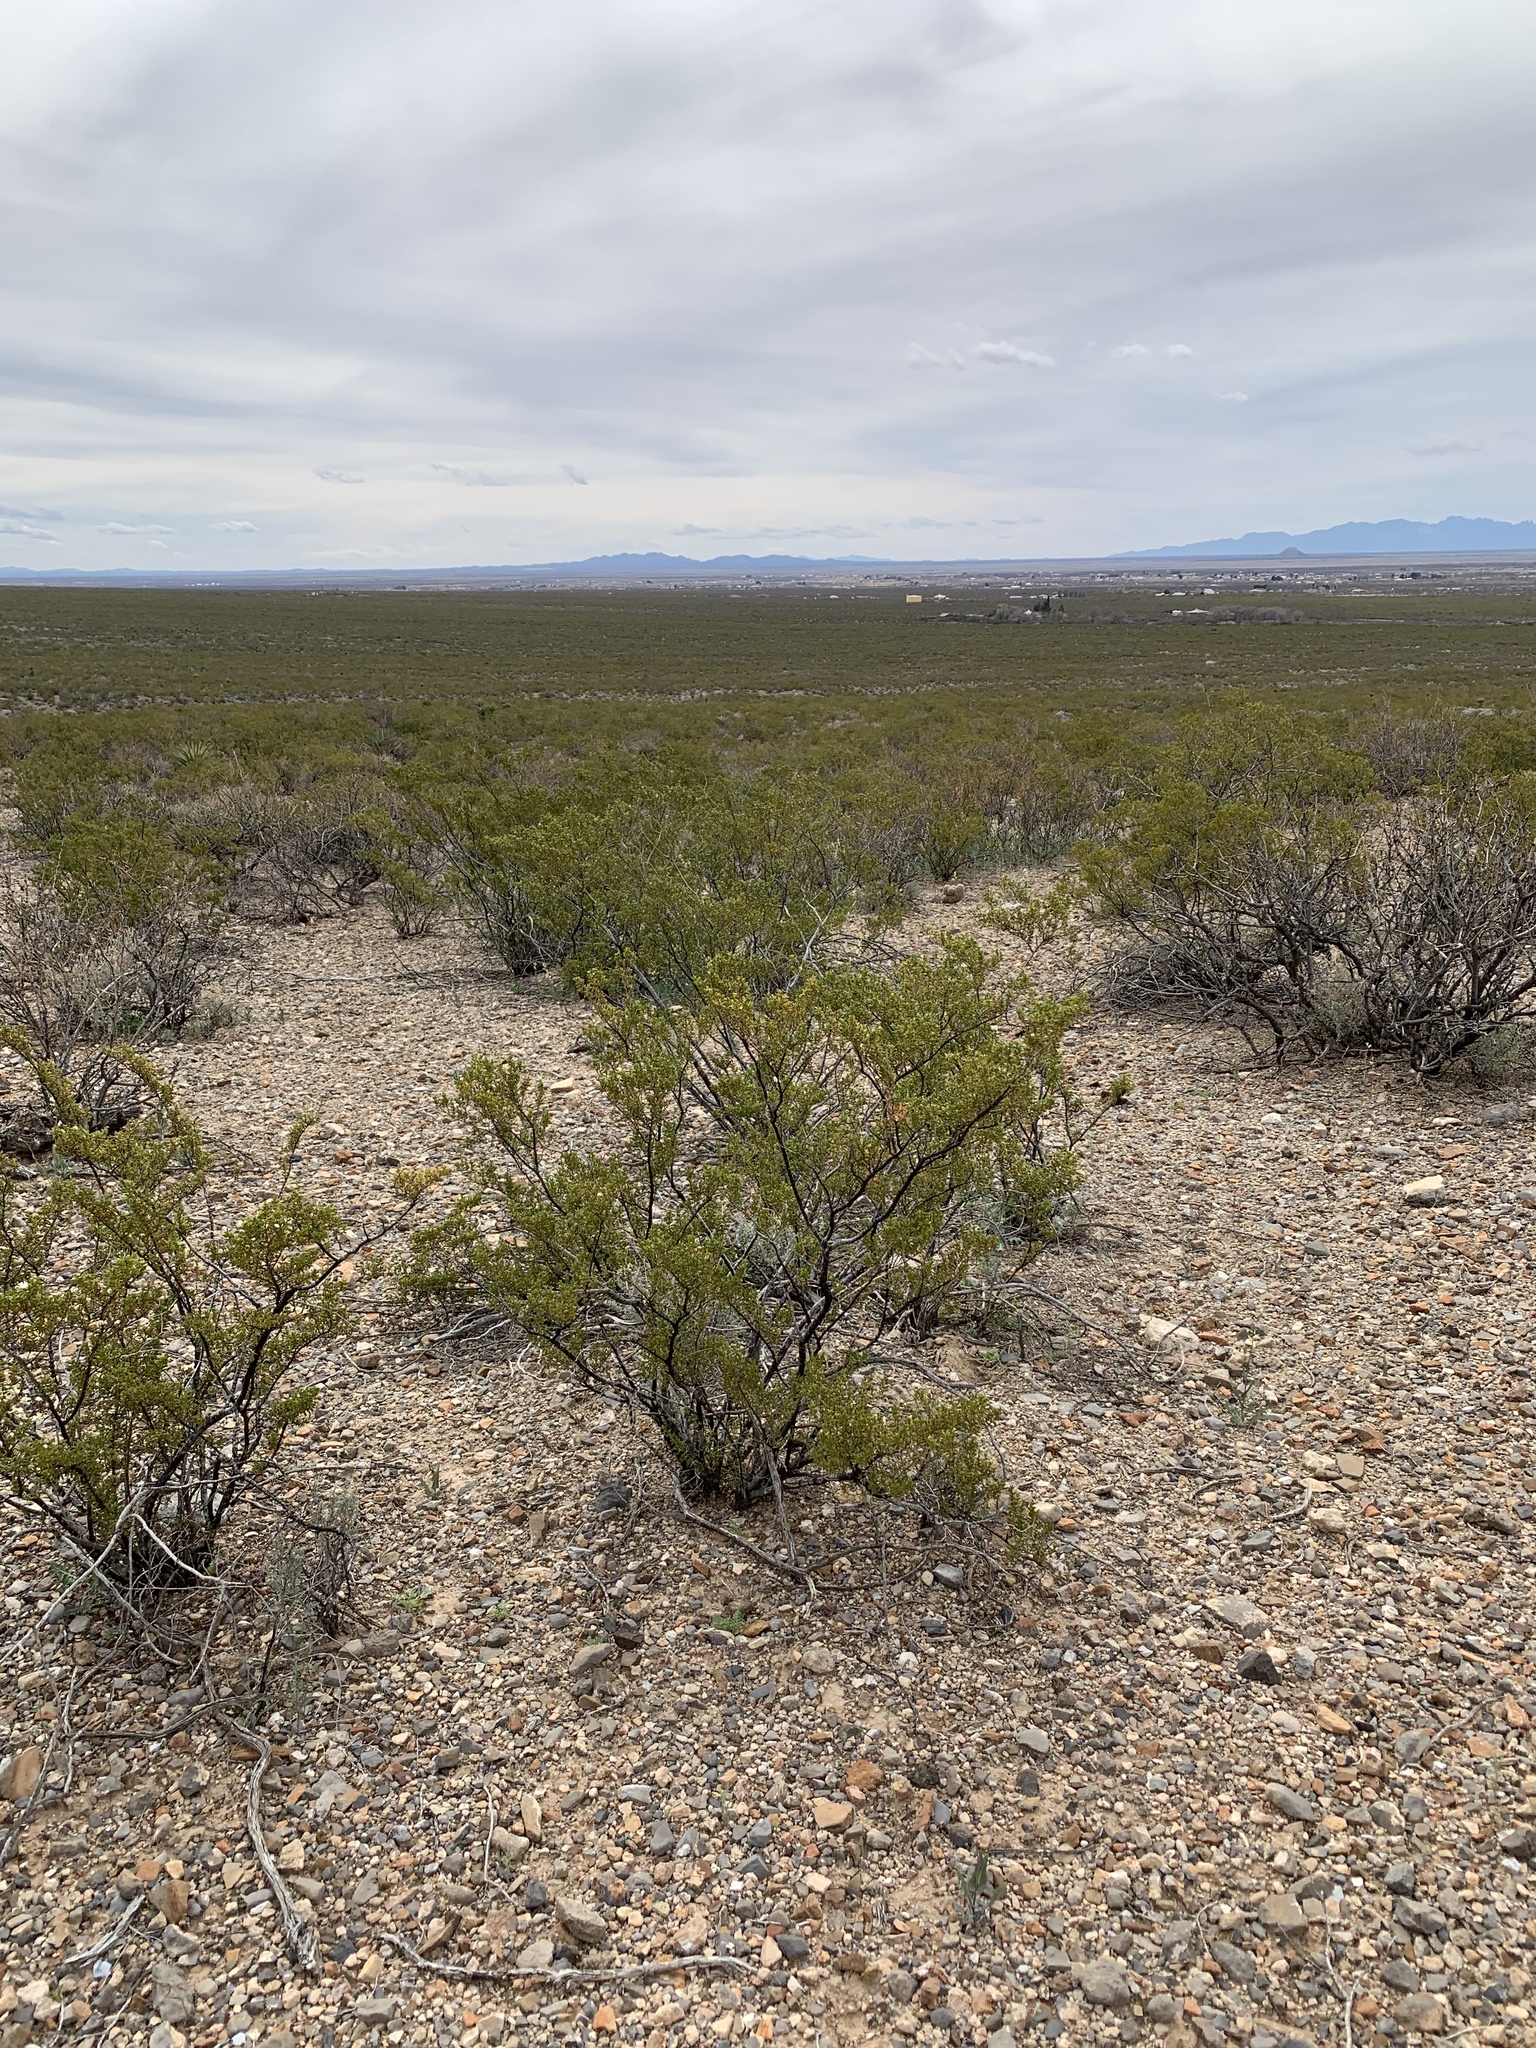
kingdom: Plantae
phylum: Tracheophyta
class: Magnoliopsida
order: Zygophyllales
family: Zygophyllaceae
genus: Larrea
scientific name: Larrea tridentata
